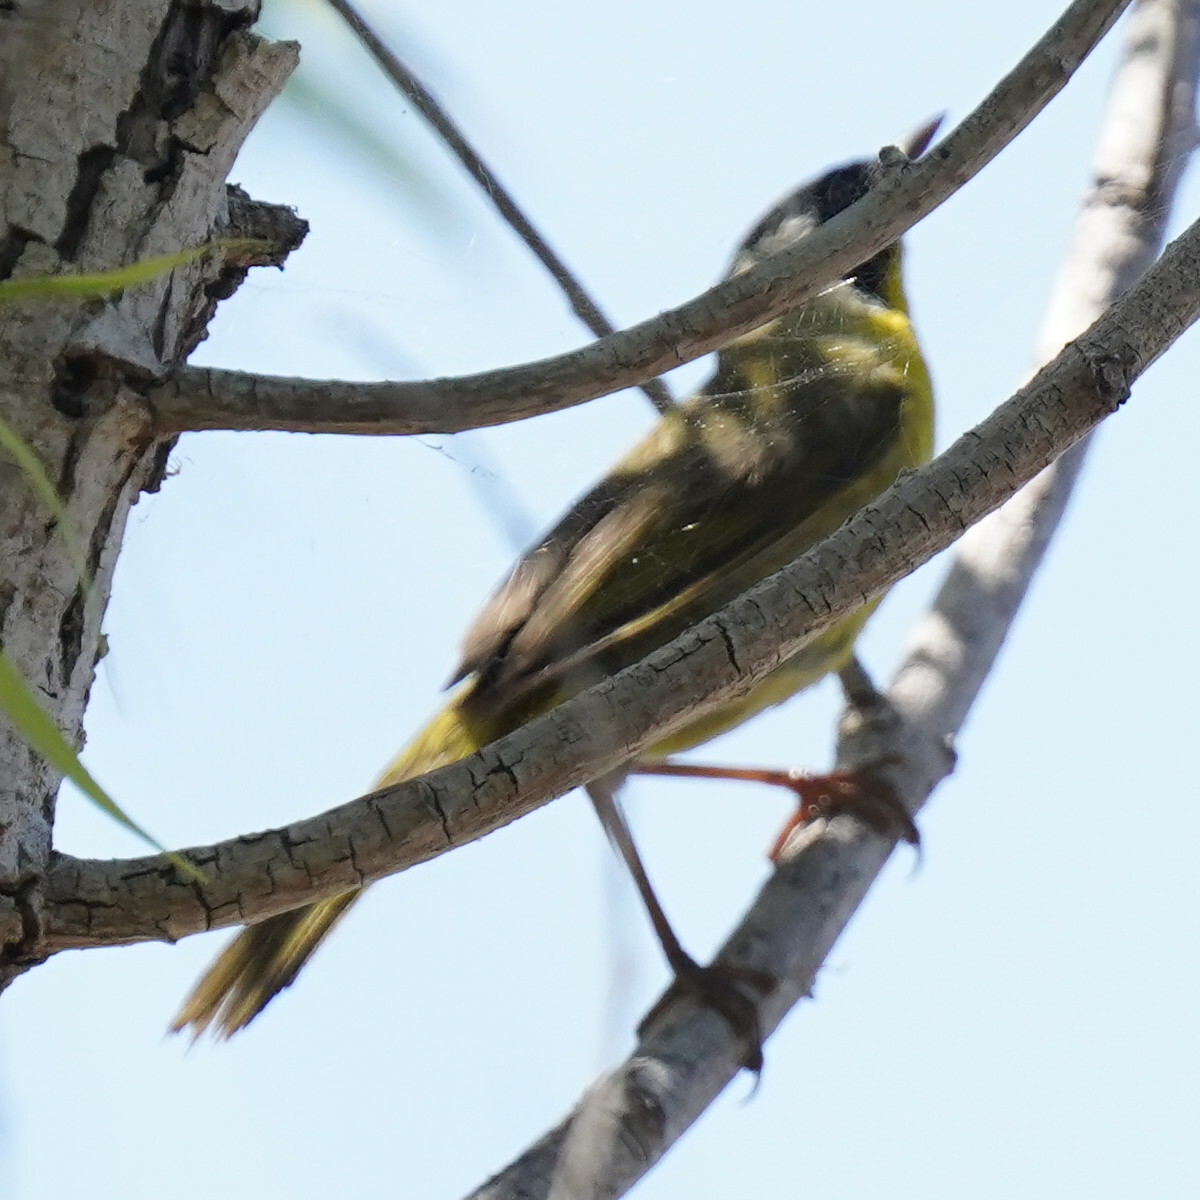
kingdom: Animalia
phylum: Chordata
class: Aves
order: Passeriformes
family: Parulidae
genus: Geothlypis
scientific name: Geothlypis trichas
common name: Common yellowthroat
